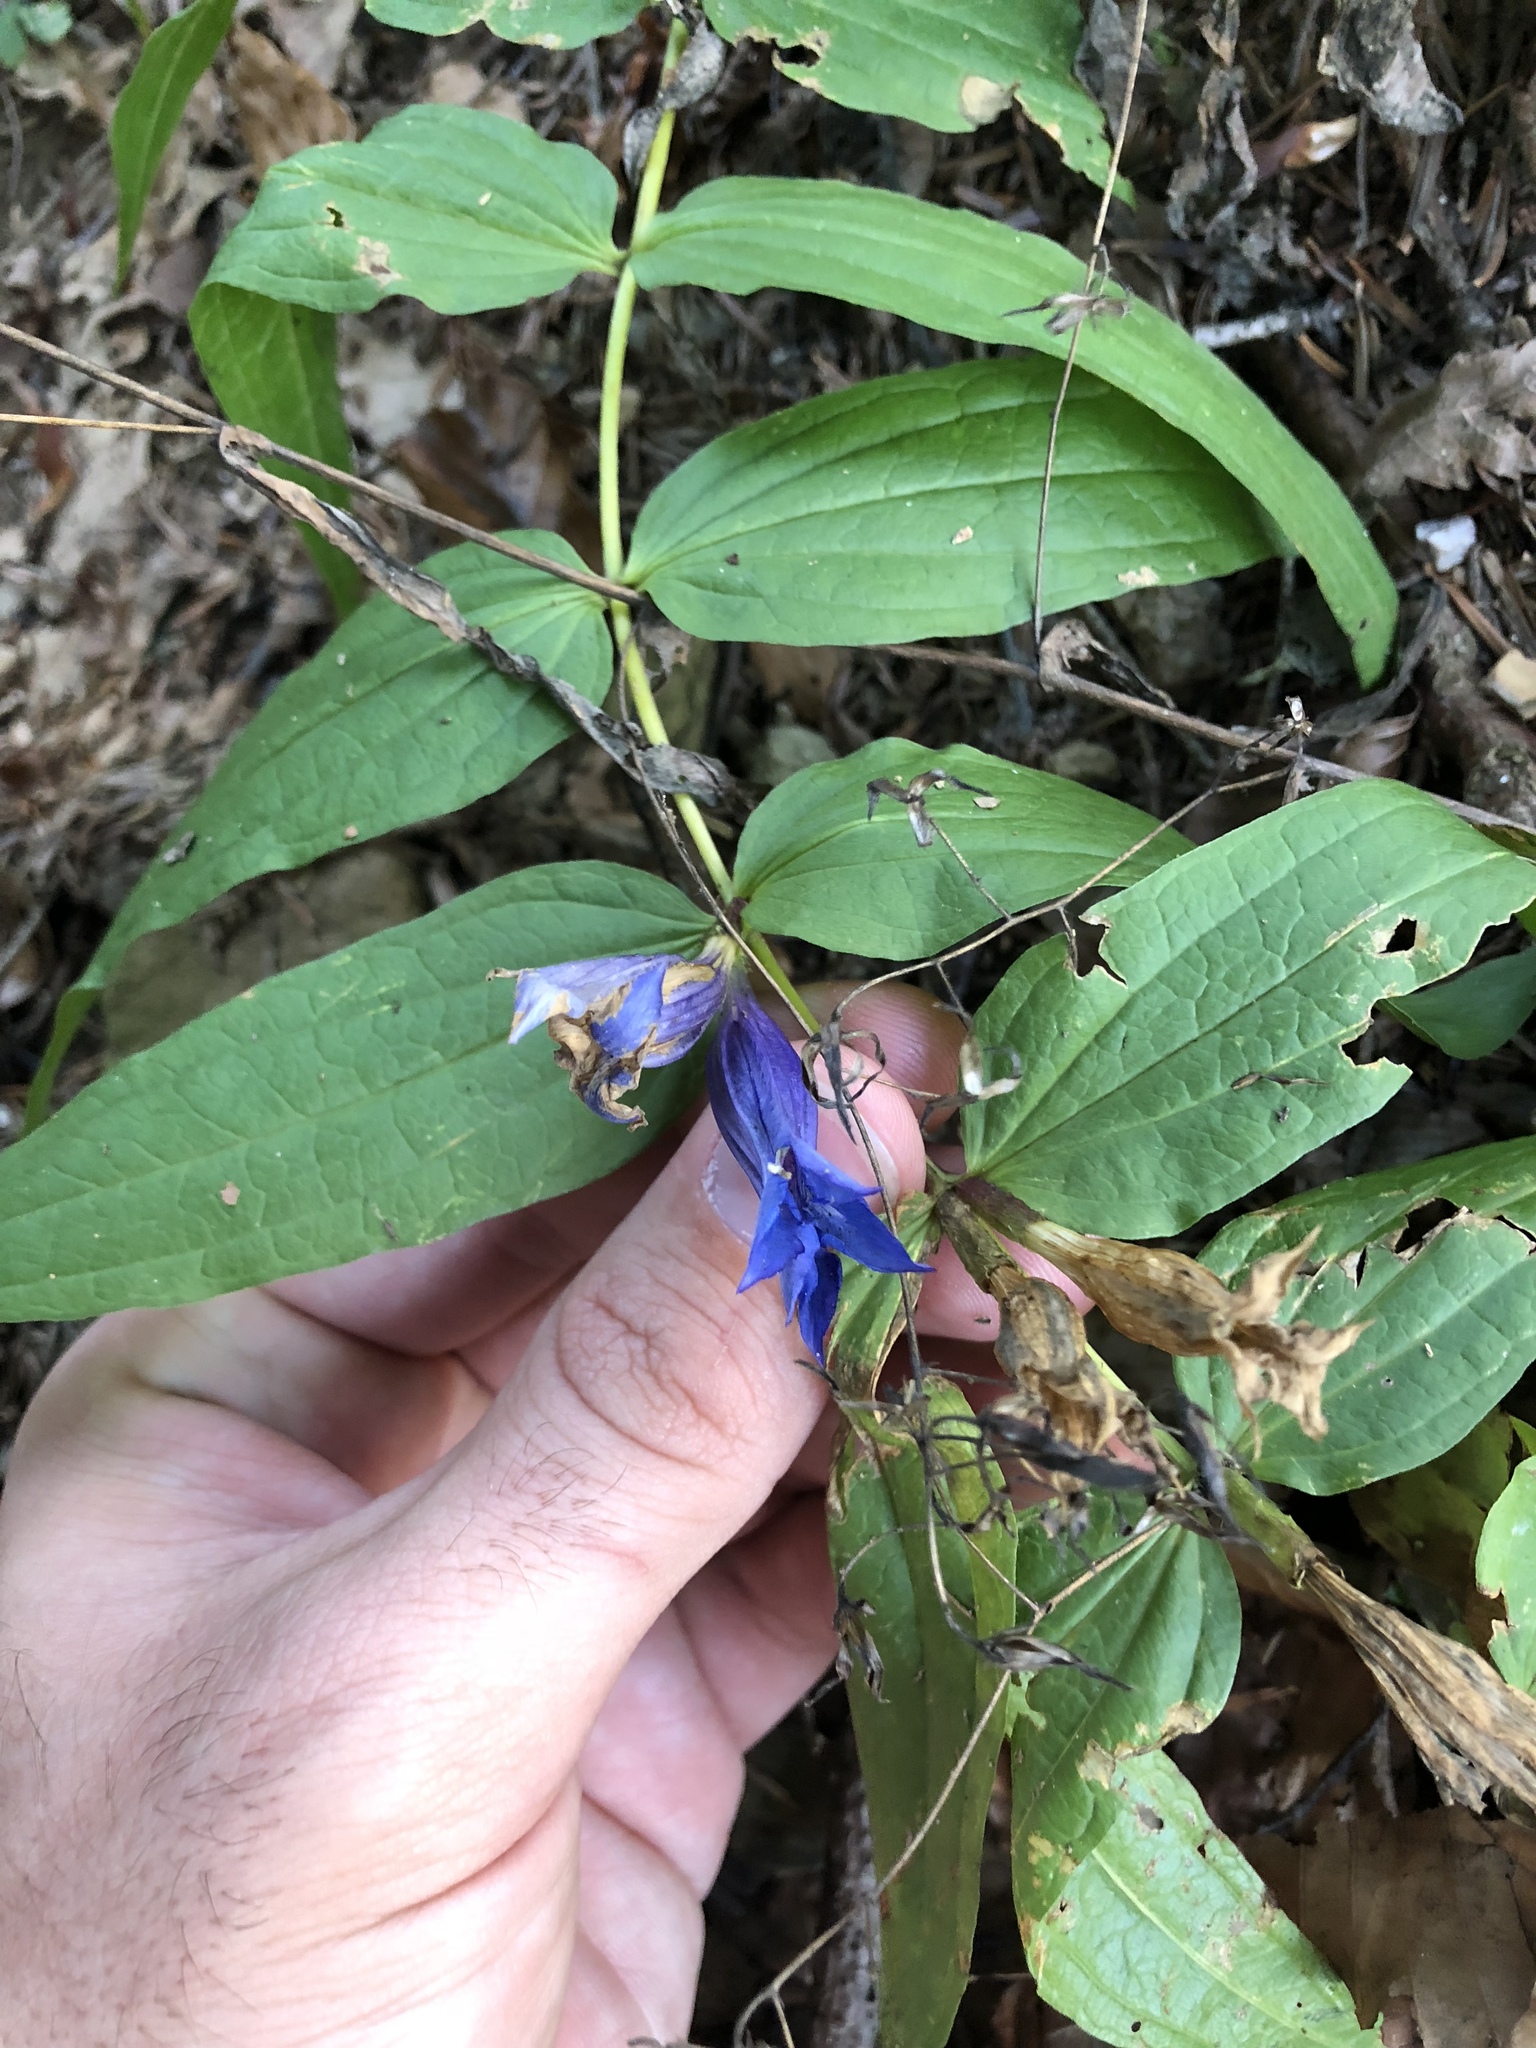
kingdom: Plantae
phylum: Tracheophyta
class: Magnoliopsida
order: Gentianales
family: Gentianaceae
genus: Gentiana
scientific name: Gentiana asclepiadea
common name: Willow gentian
